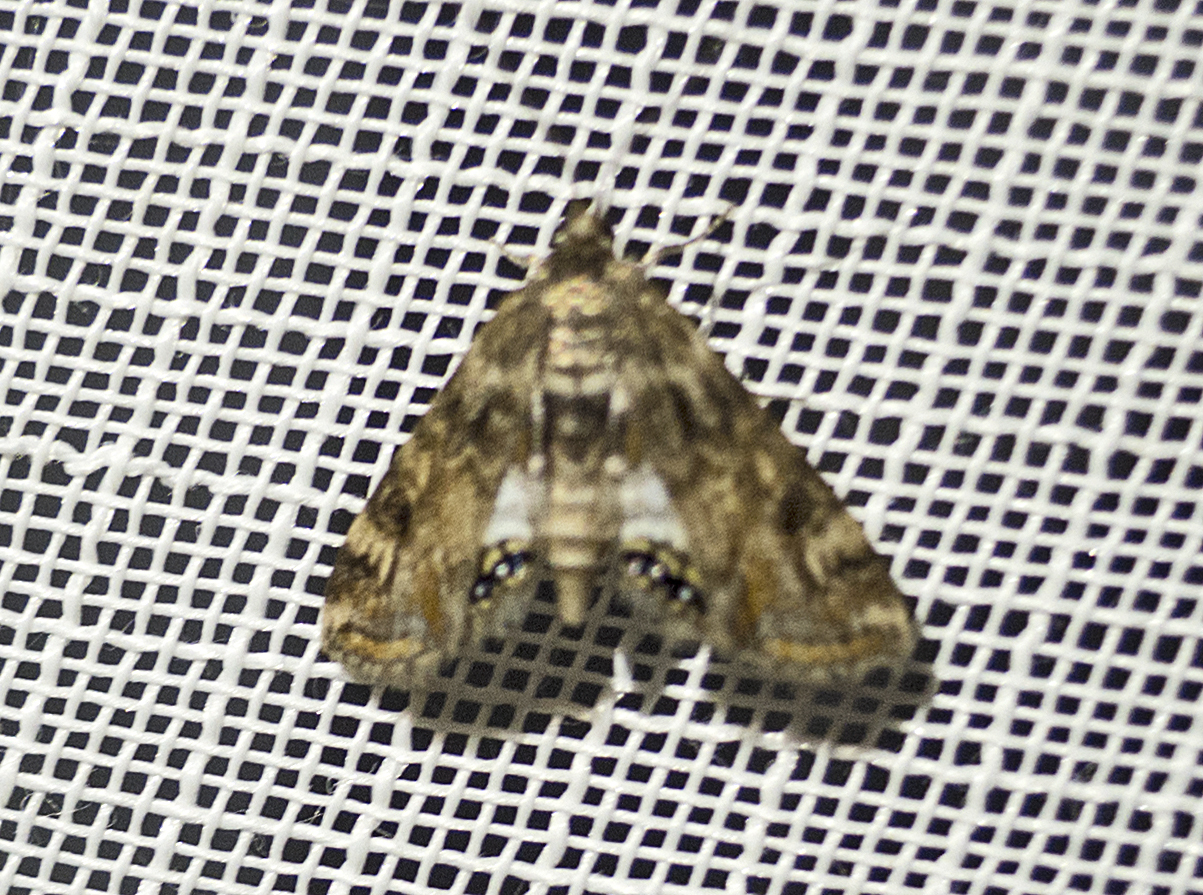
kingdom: Animalia
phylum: Arthropoda
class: Insecta
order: Lepidoptera
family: Crambidae
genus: Cataclysta
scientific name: Cataclysta lemnata
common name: Small china-mark
